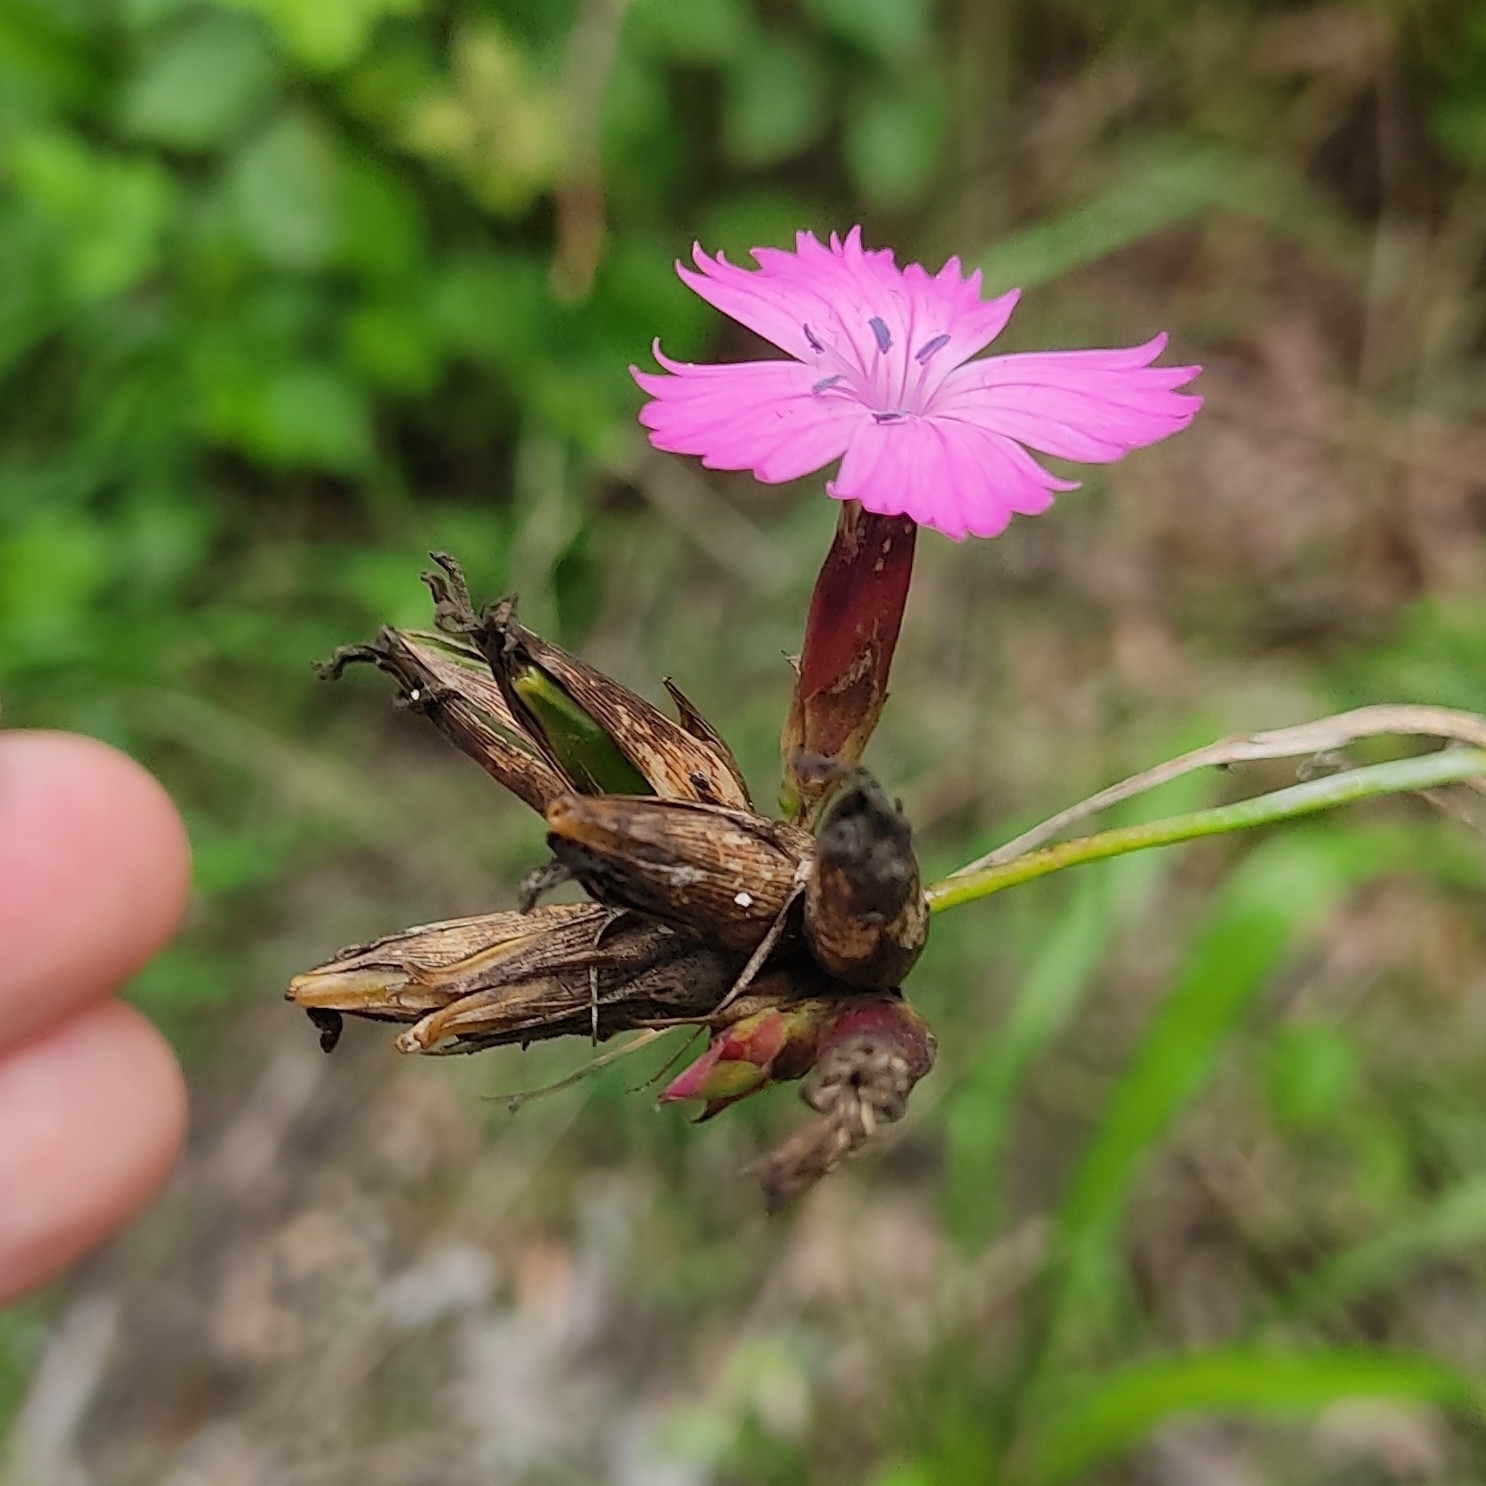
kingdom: Plantae
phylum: Tracheophyta
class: Magnoliopsida
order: Caryophyllales
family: Caryophyllaceae
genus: Dianthus
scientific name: Dianthus carthusianorum
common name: Carthusian pink
